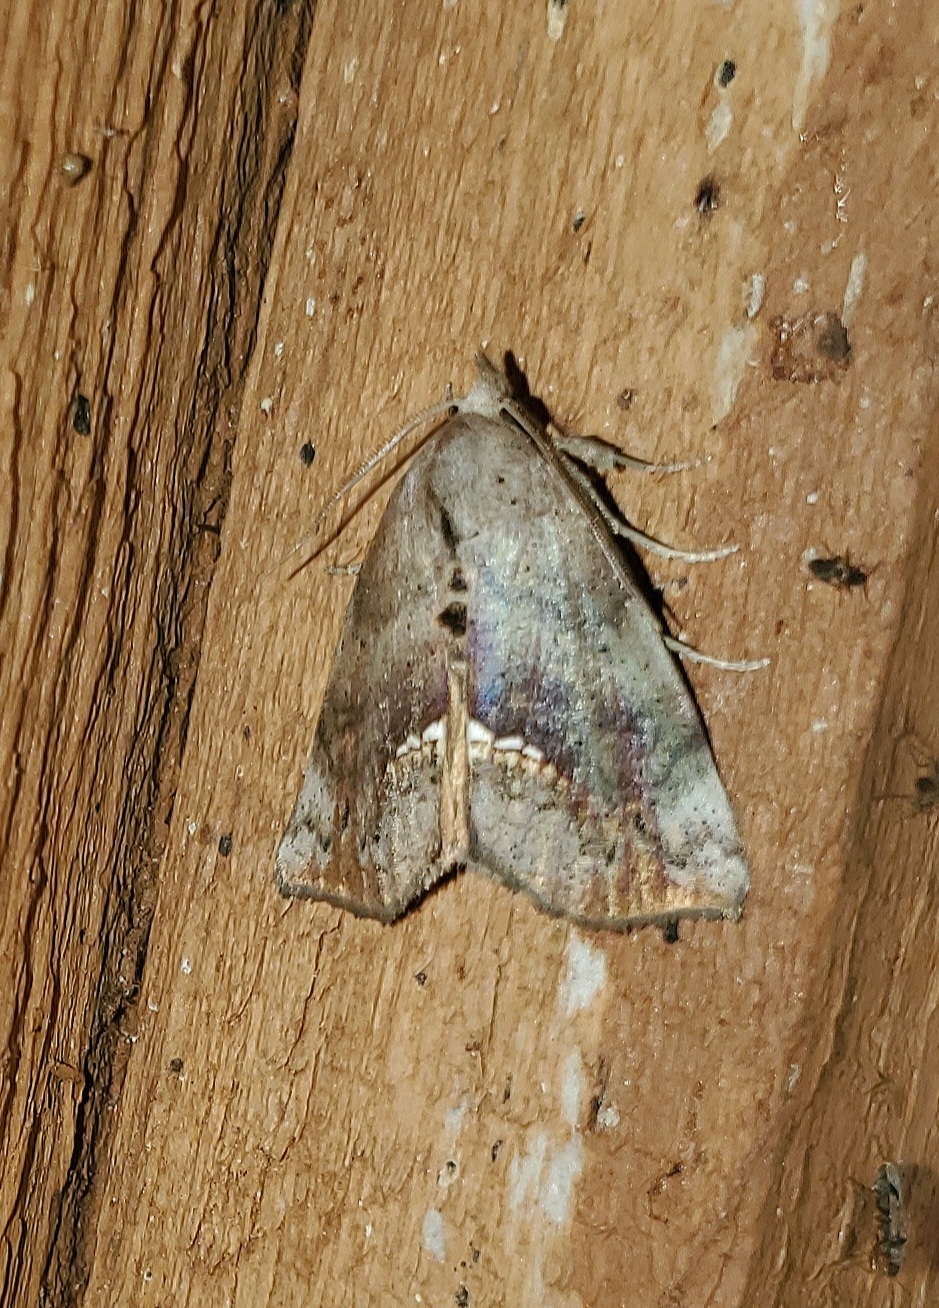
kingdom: Animalia
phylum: Arthropoda
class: Insecta
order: Lepidoptera
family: Erebidae
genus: Hypsoropha
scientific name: Hypsoropha hormos
